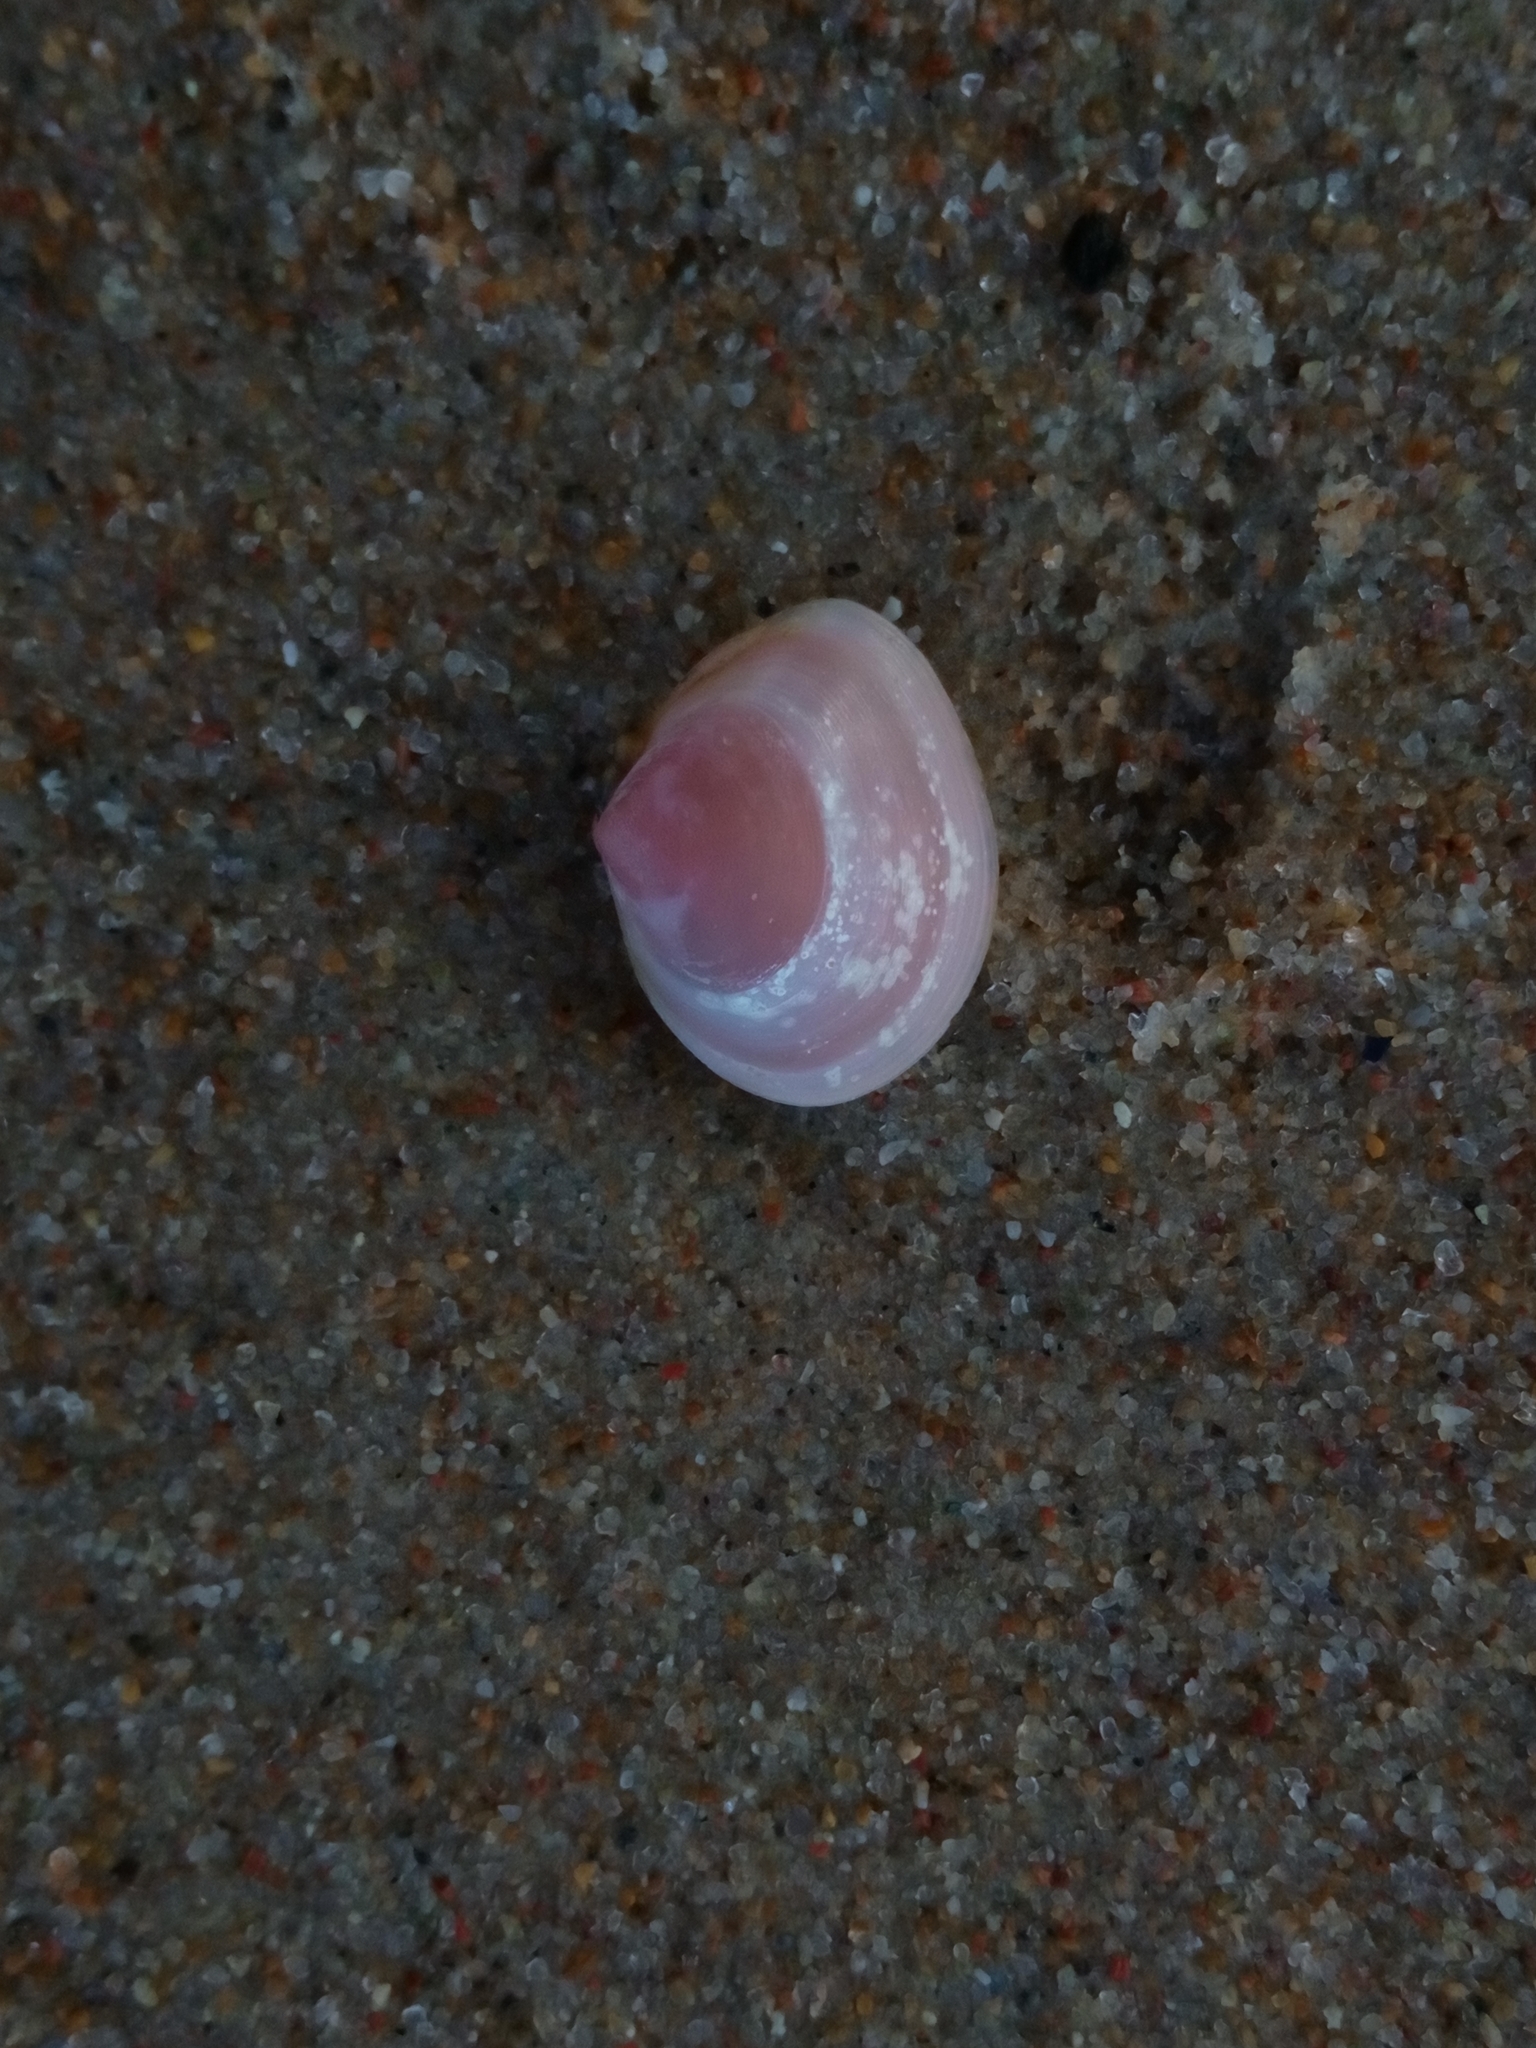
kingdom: Animalia
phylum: Mollusca
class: Bivalvia
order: Cardiida
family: Tellinidae
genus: Macoma
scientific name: Macoma balthica
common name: Baltic tellin
